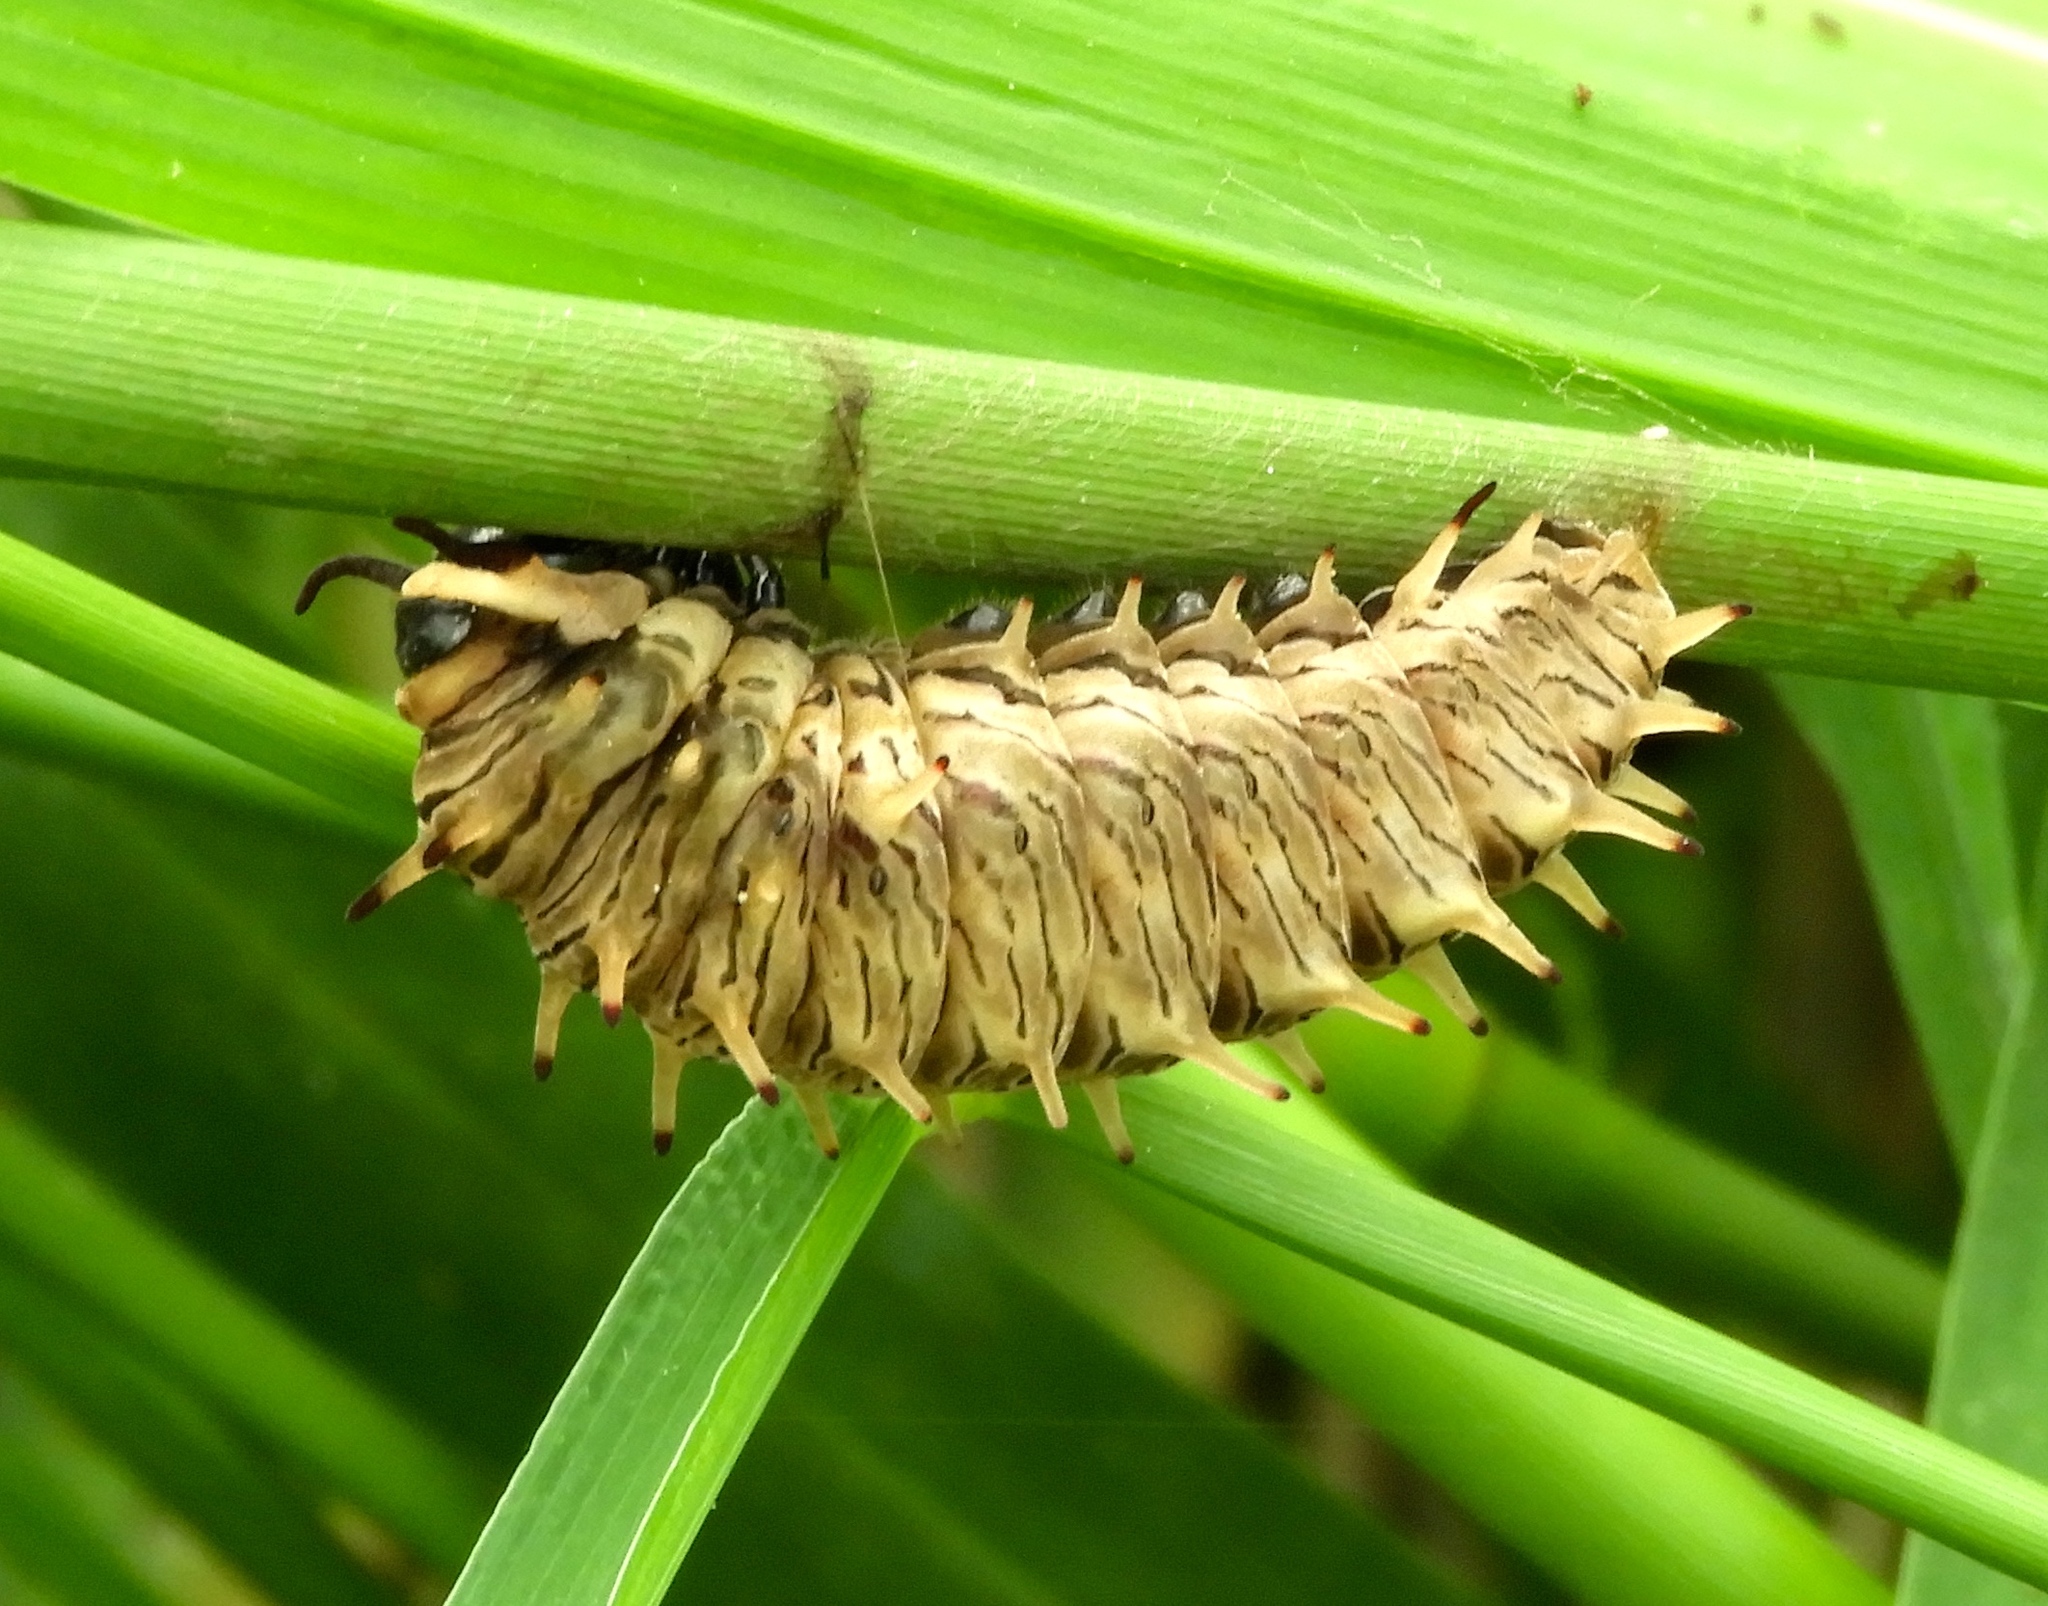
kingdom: Animalia
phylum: Arthropoda
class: Insecta
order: Lepidoptera
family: Papilionidae
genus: Battus
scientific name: Battus polydamas
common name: Polydamas swallowtail
